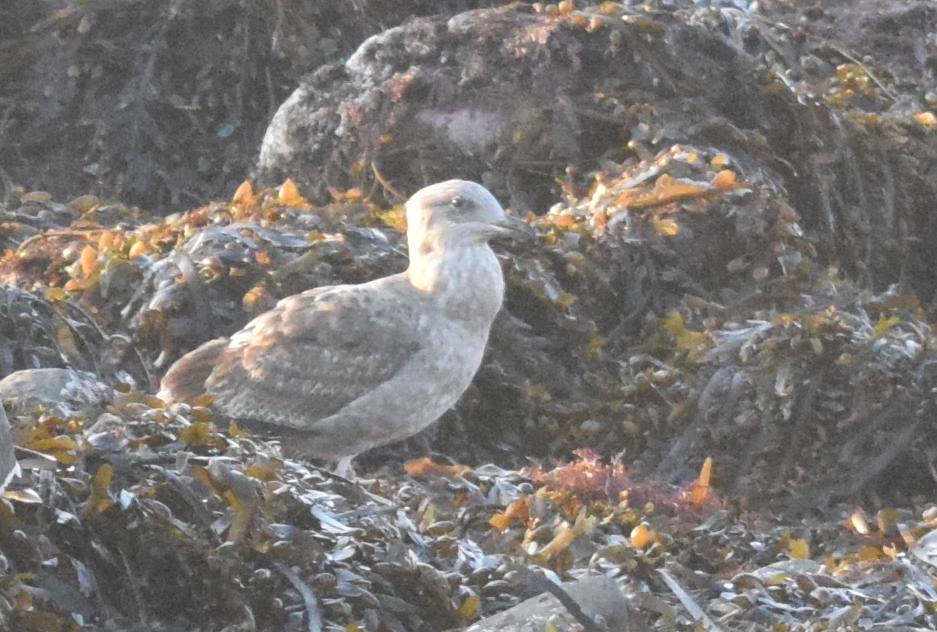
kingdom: Animalia
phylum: Chordata
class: Aves
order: Charadriiformes
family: Laridae
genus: Larus
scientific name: Larus occidentalis
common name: Western gull
